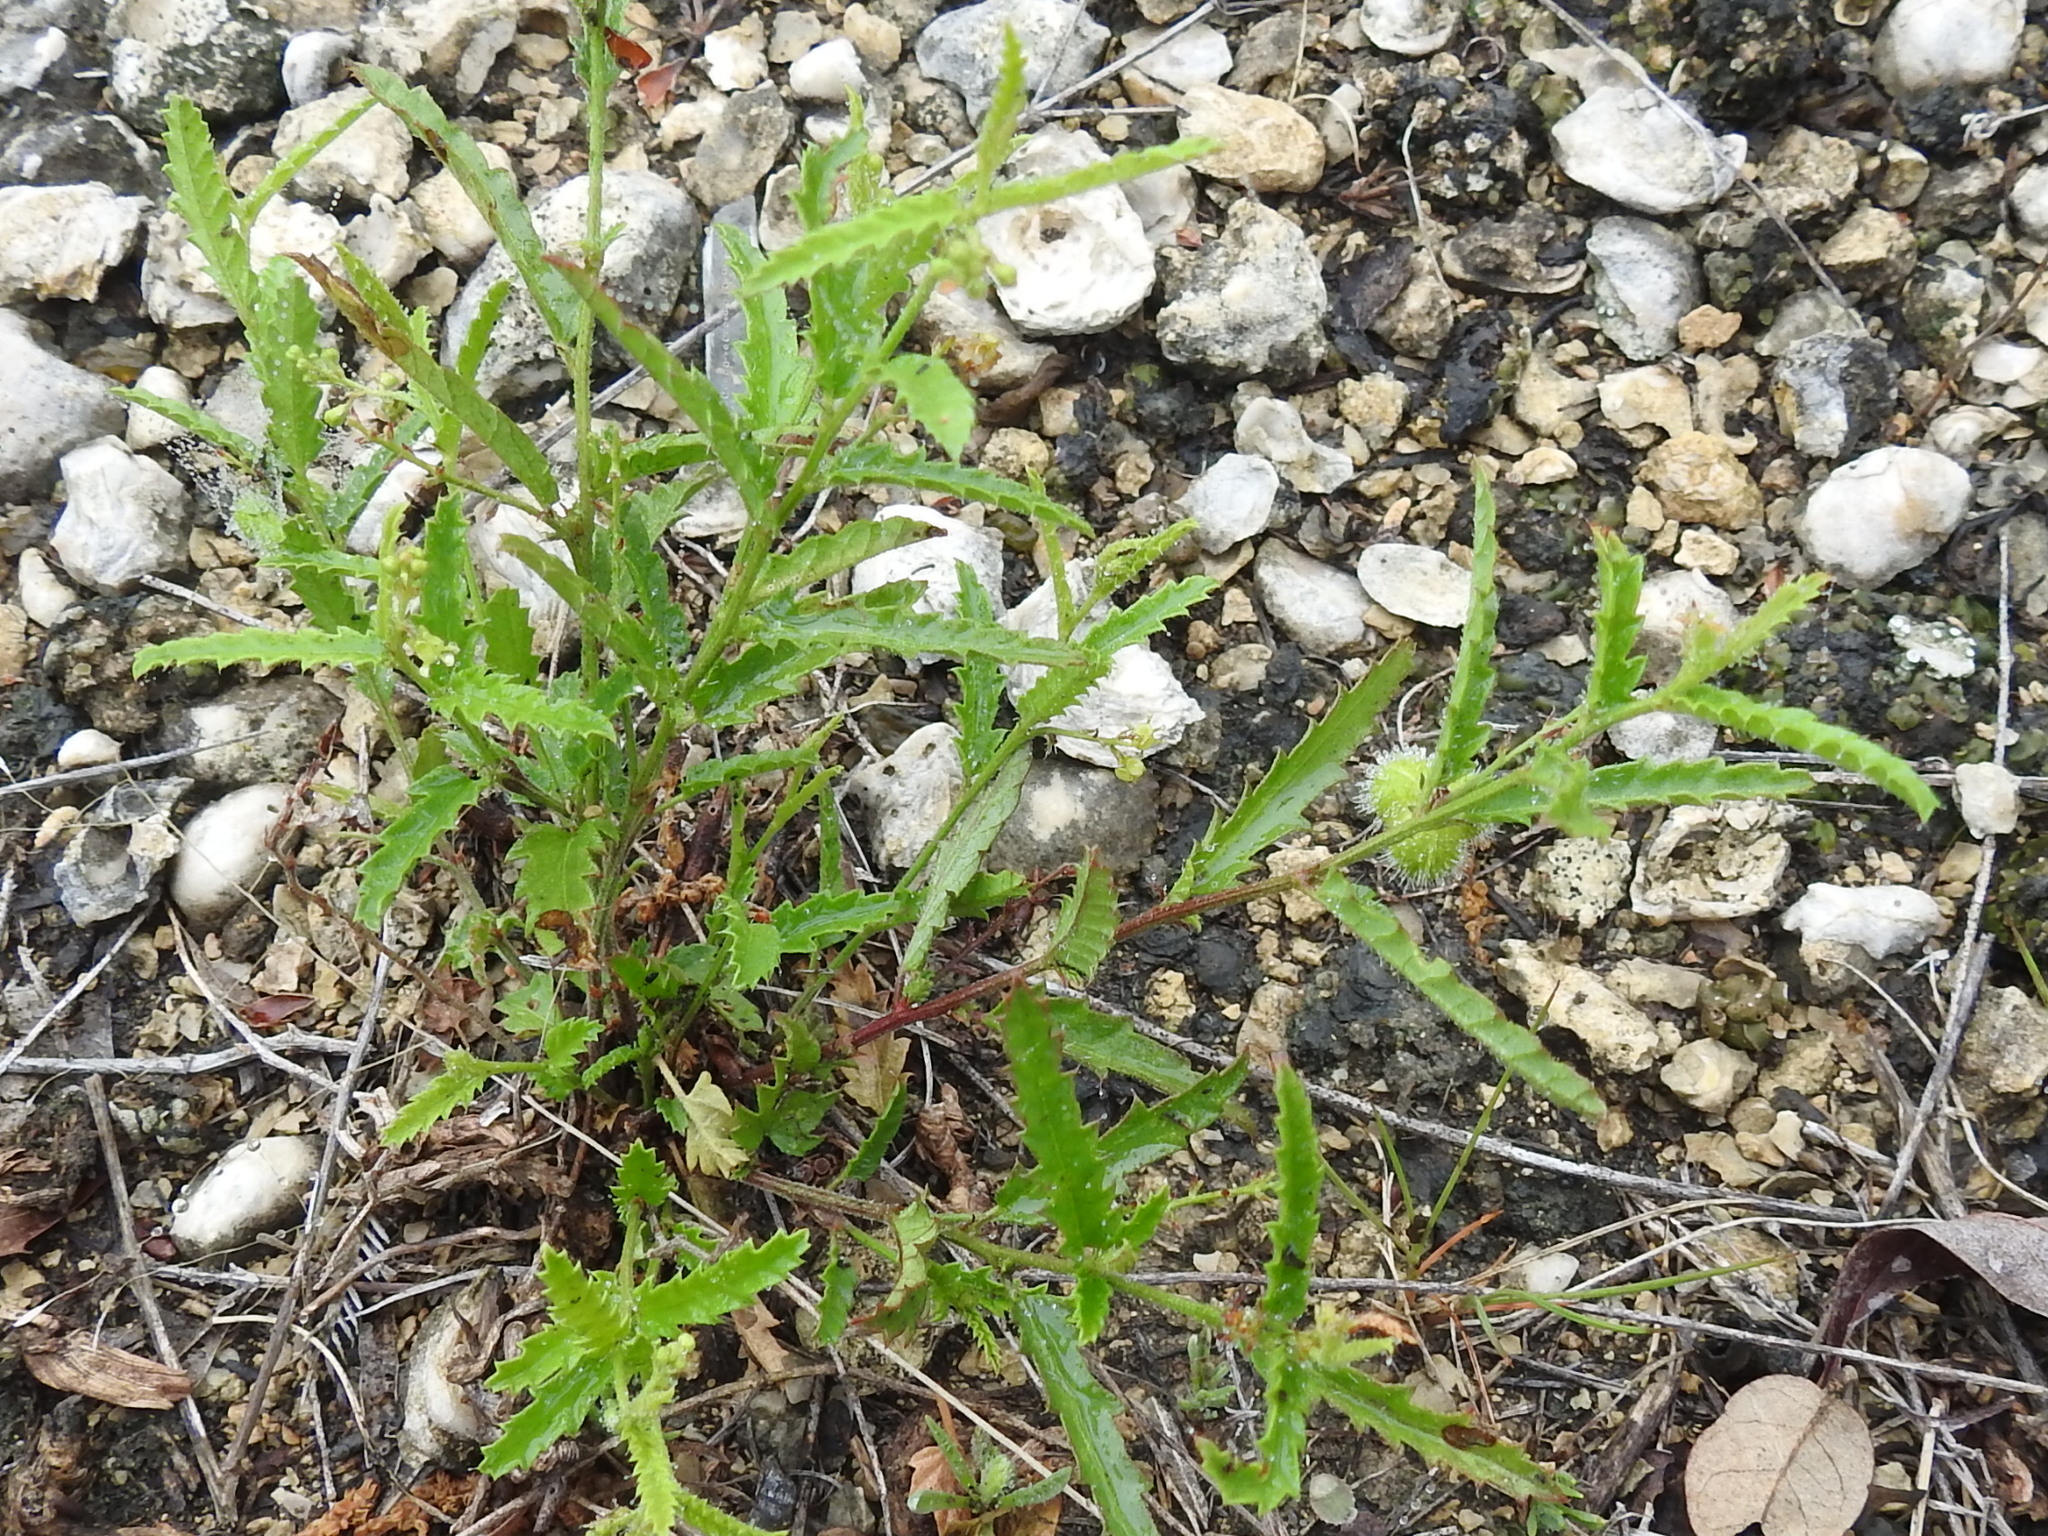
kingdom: Plantae
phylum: Tracheophyta
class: Magnoliopsida
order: Malpighiales
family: Euphorbiaceae
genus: Tragia
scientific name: Tragia ramosa
